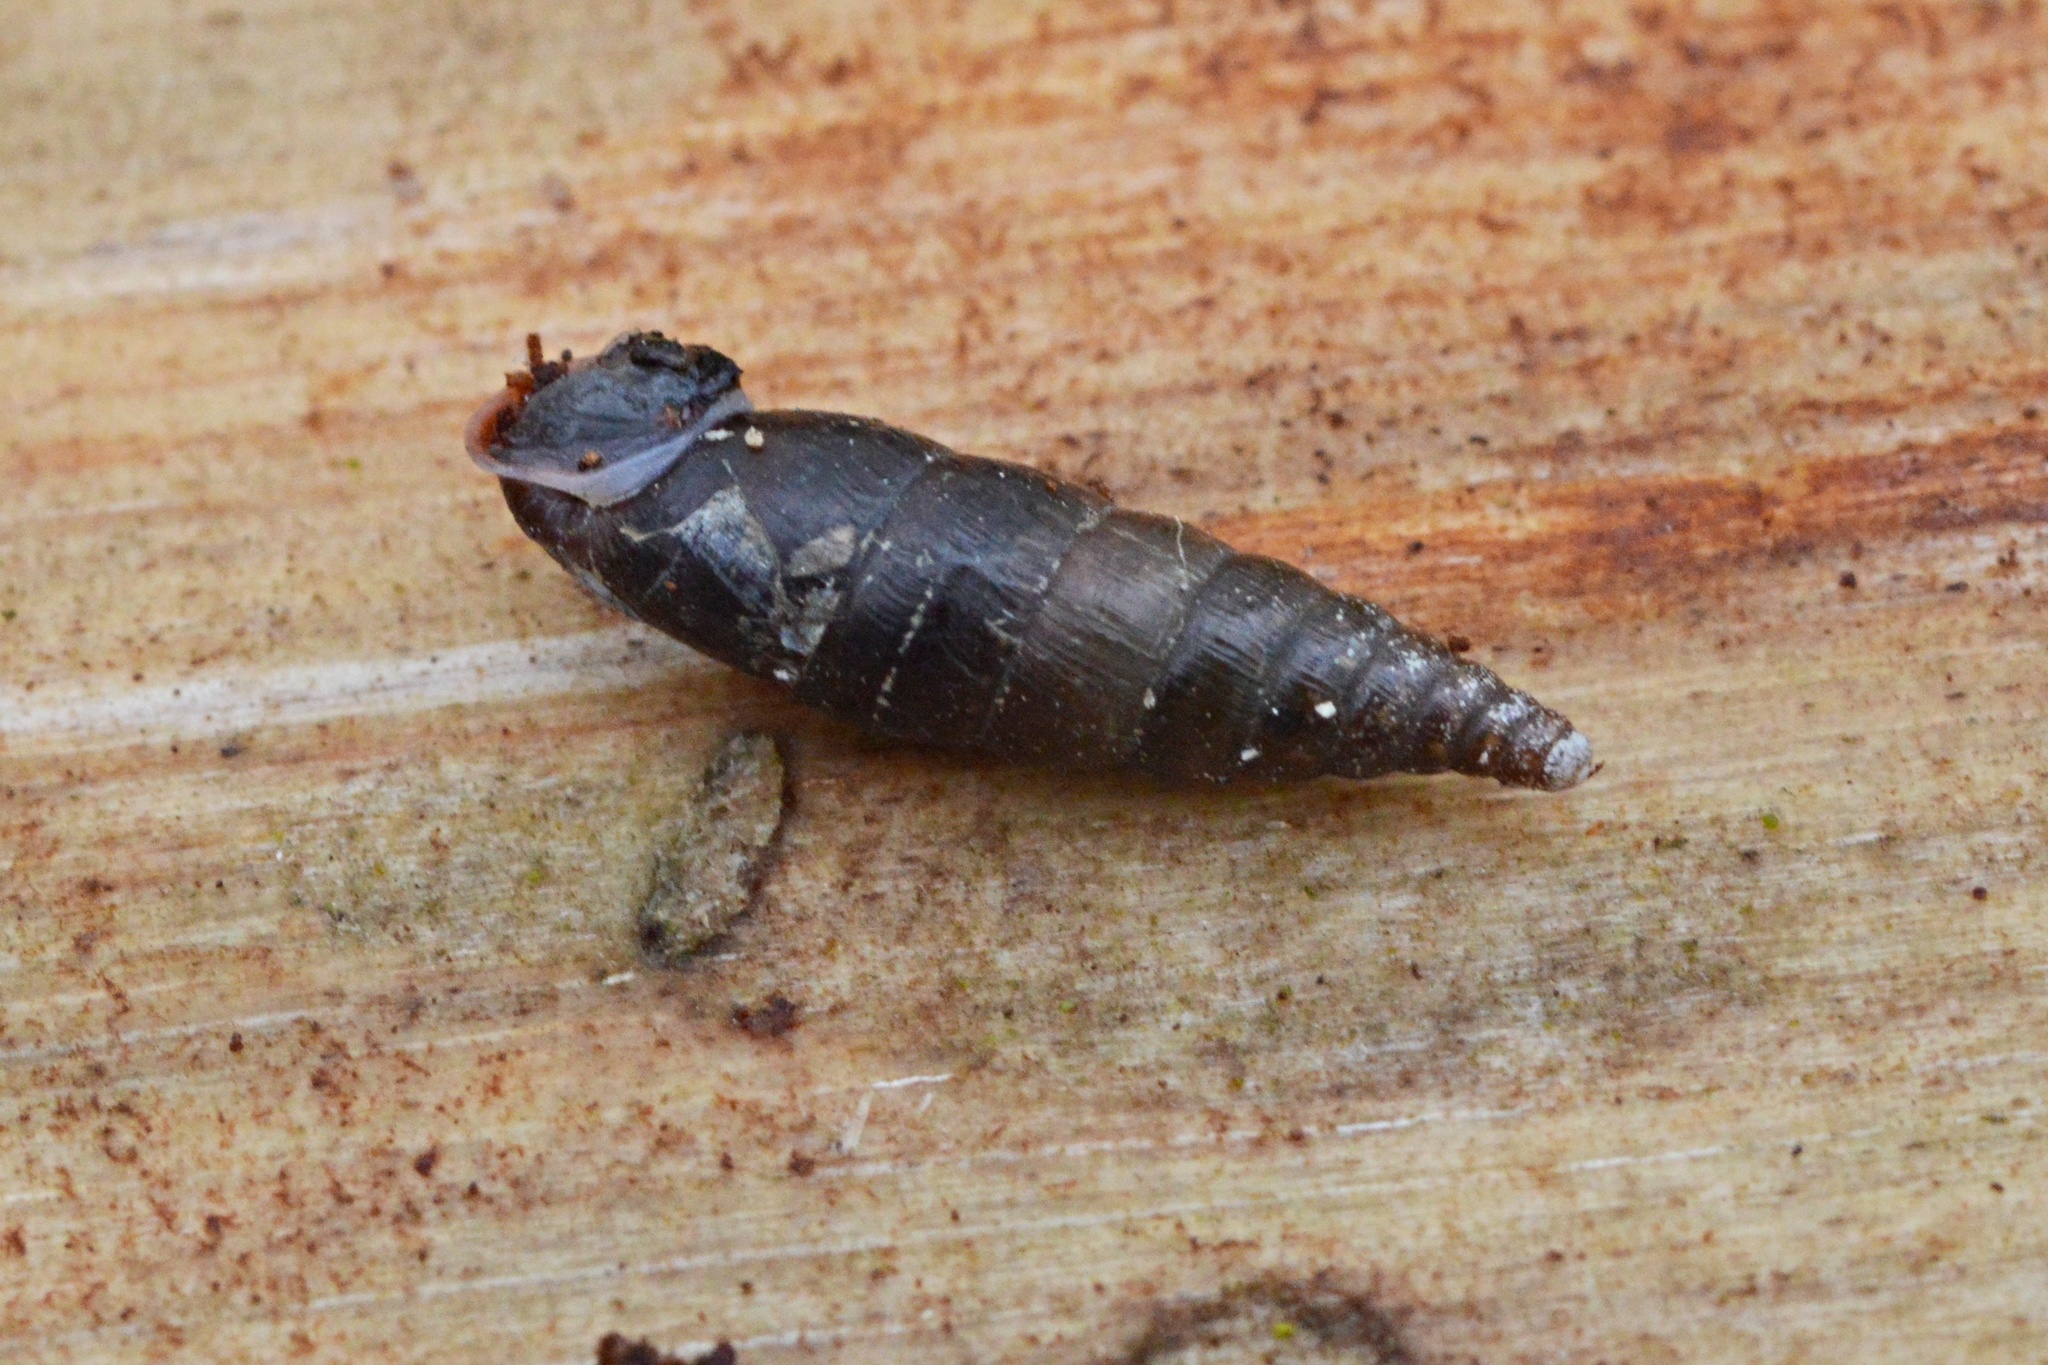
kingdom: Animalia
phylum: Mollusca
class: Gastropoda
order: Stylommatophora
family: Clausiliidae
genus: Cochlodina
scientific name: Cochlodina laminata
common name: Plaited door snail
